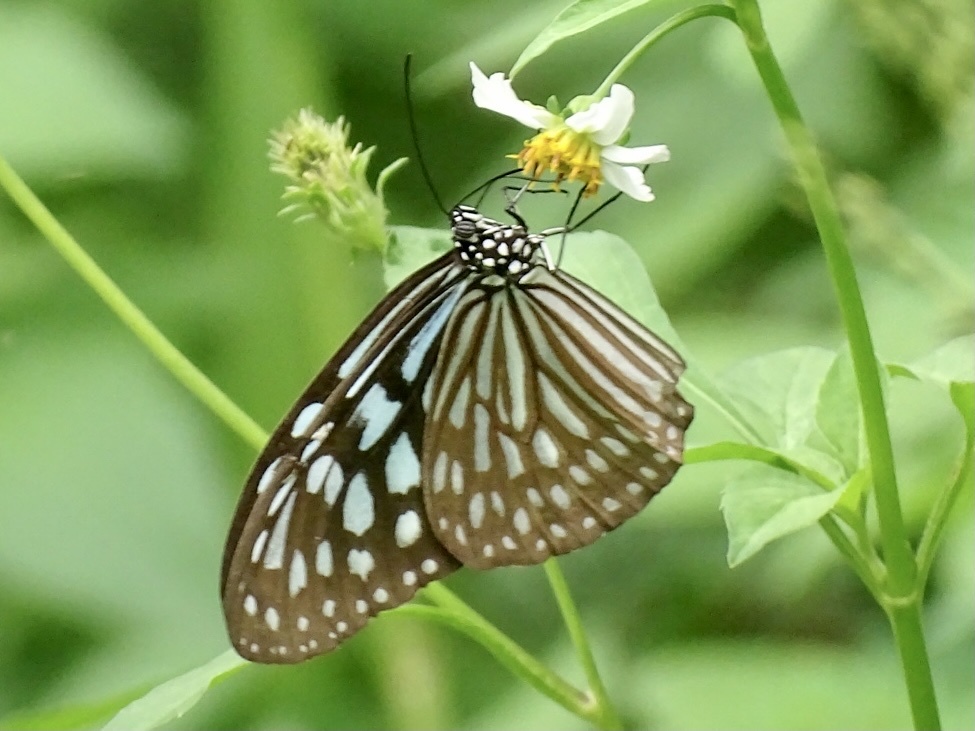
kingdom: Animalia
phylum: Arthropoda
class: Insecta
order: Lepidoptera
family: Nymphalidae
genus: Ideopsis
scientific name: Ideopsis similis
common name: Ceylon blue glassy tiger
